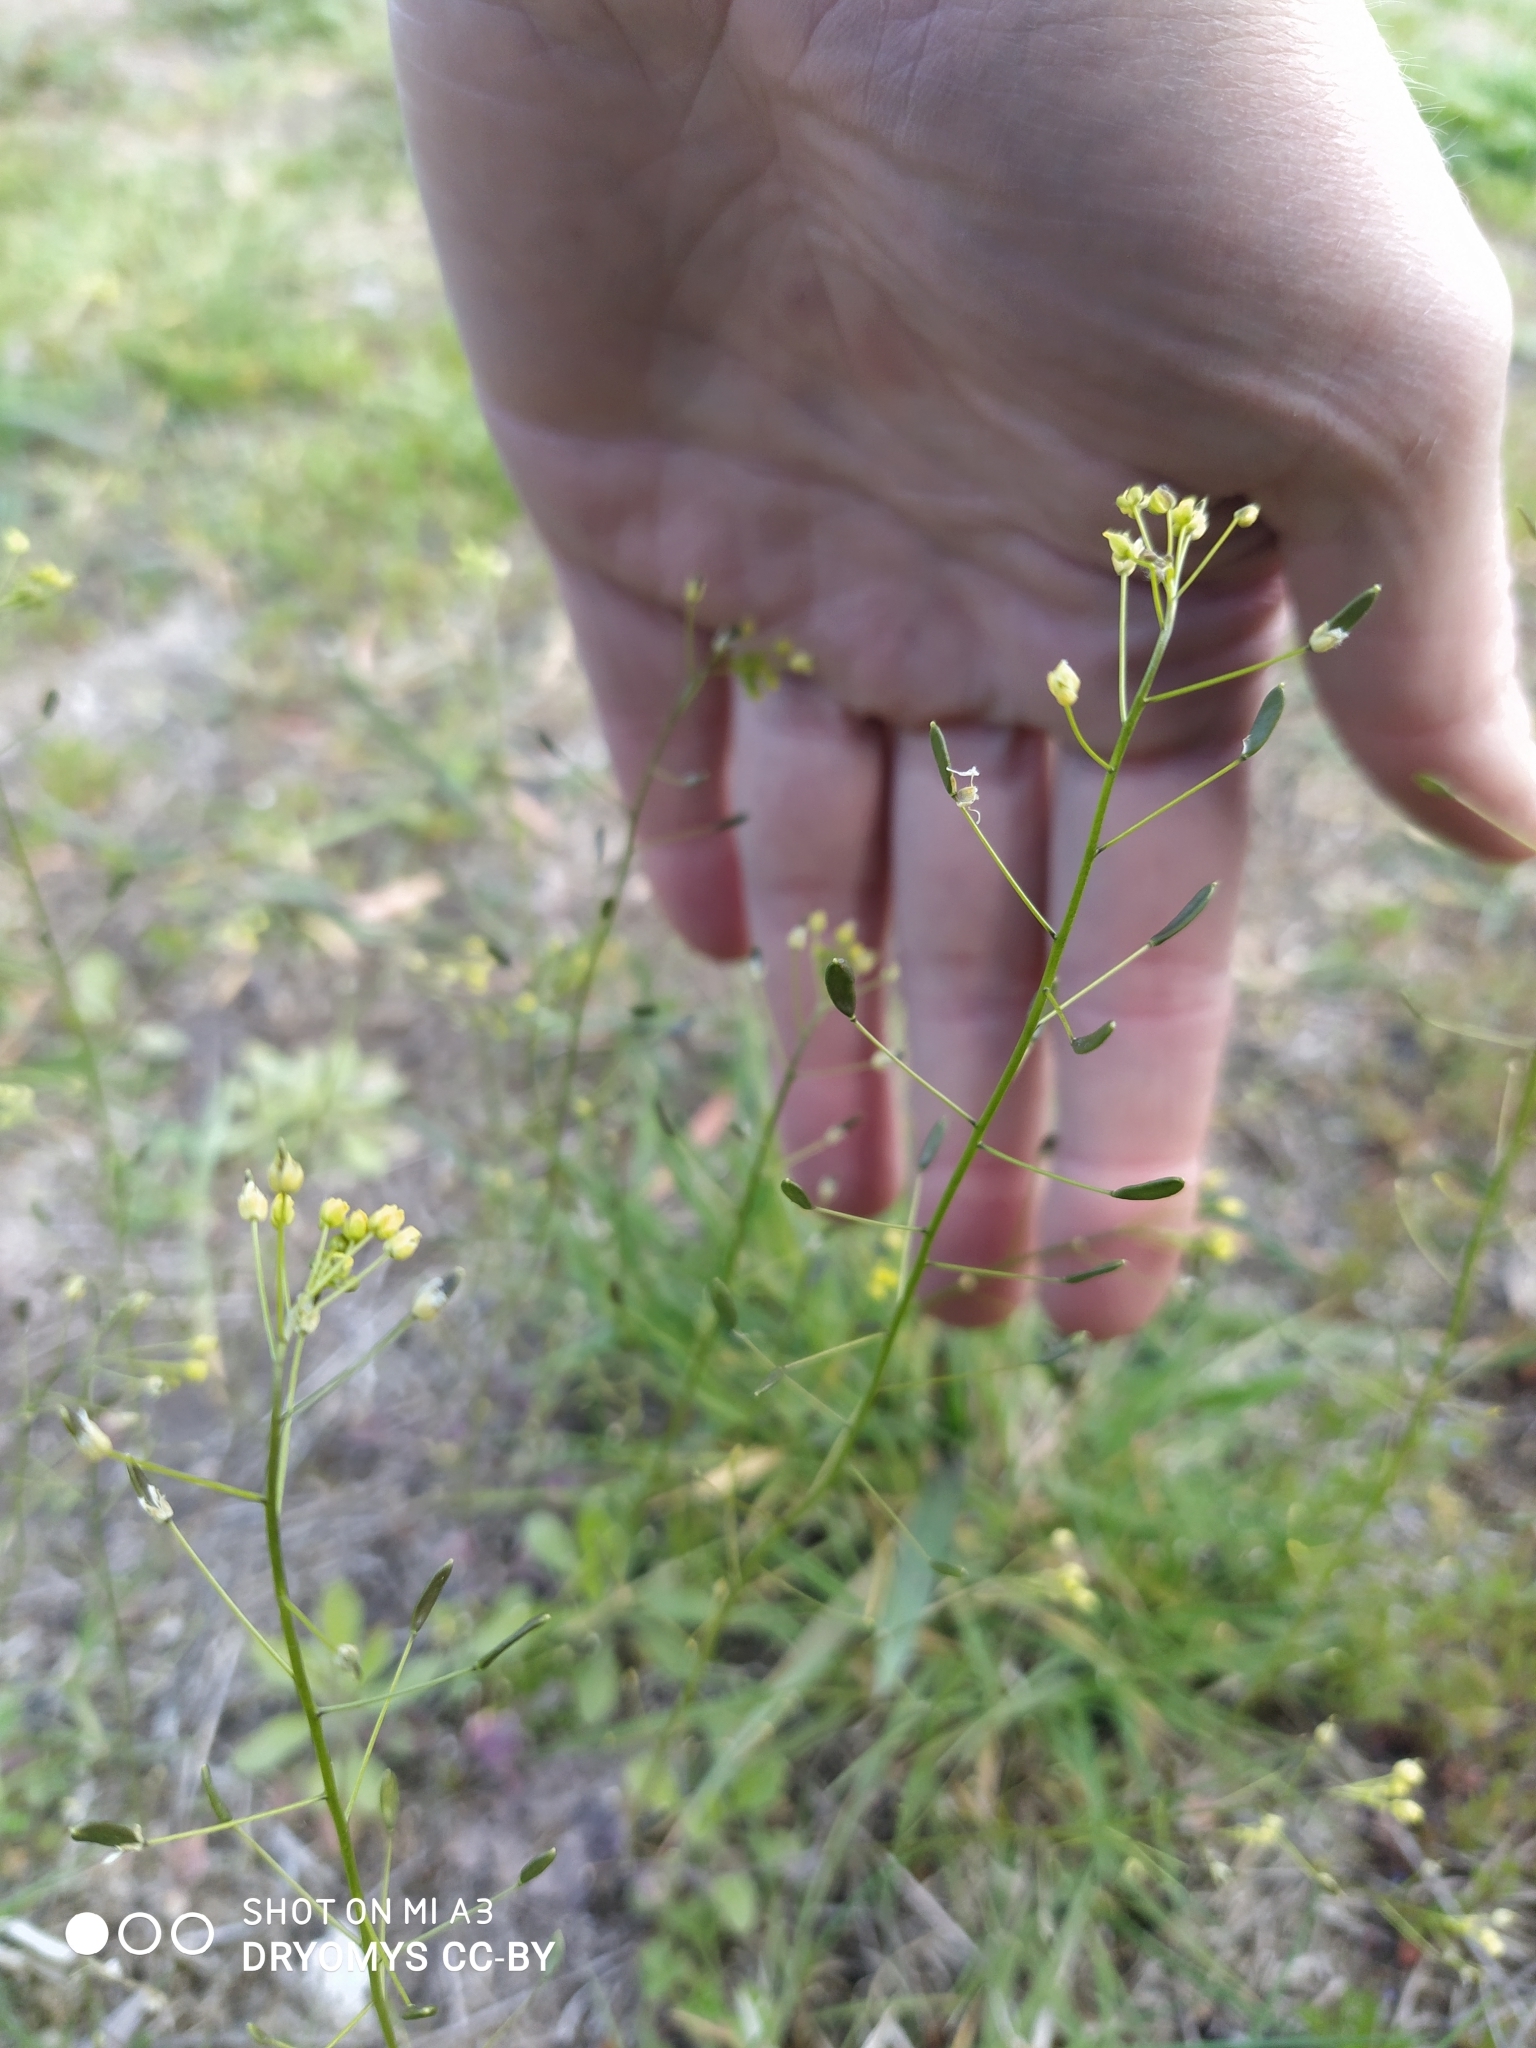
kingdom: Plantae
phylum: Tracheophyta
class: Magnoliopsida
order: Brassicales
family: Brassicaceae
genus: Draba
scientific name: Draba nemorosa
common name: Wood whitlow-grass
